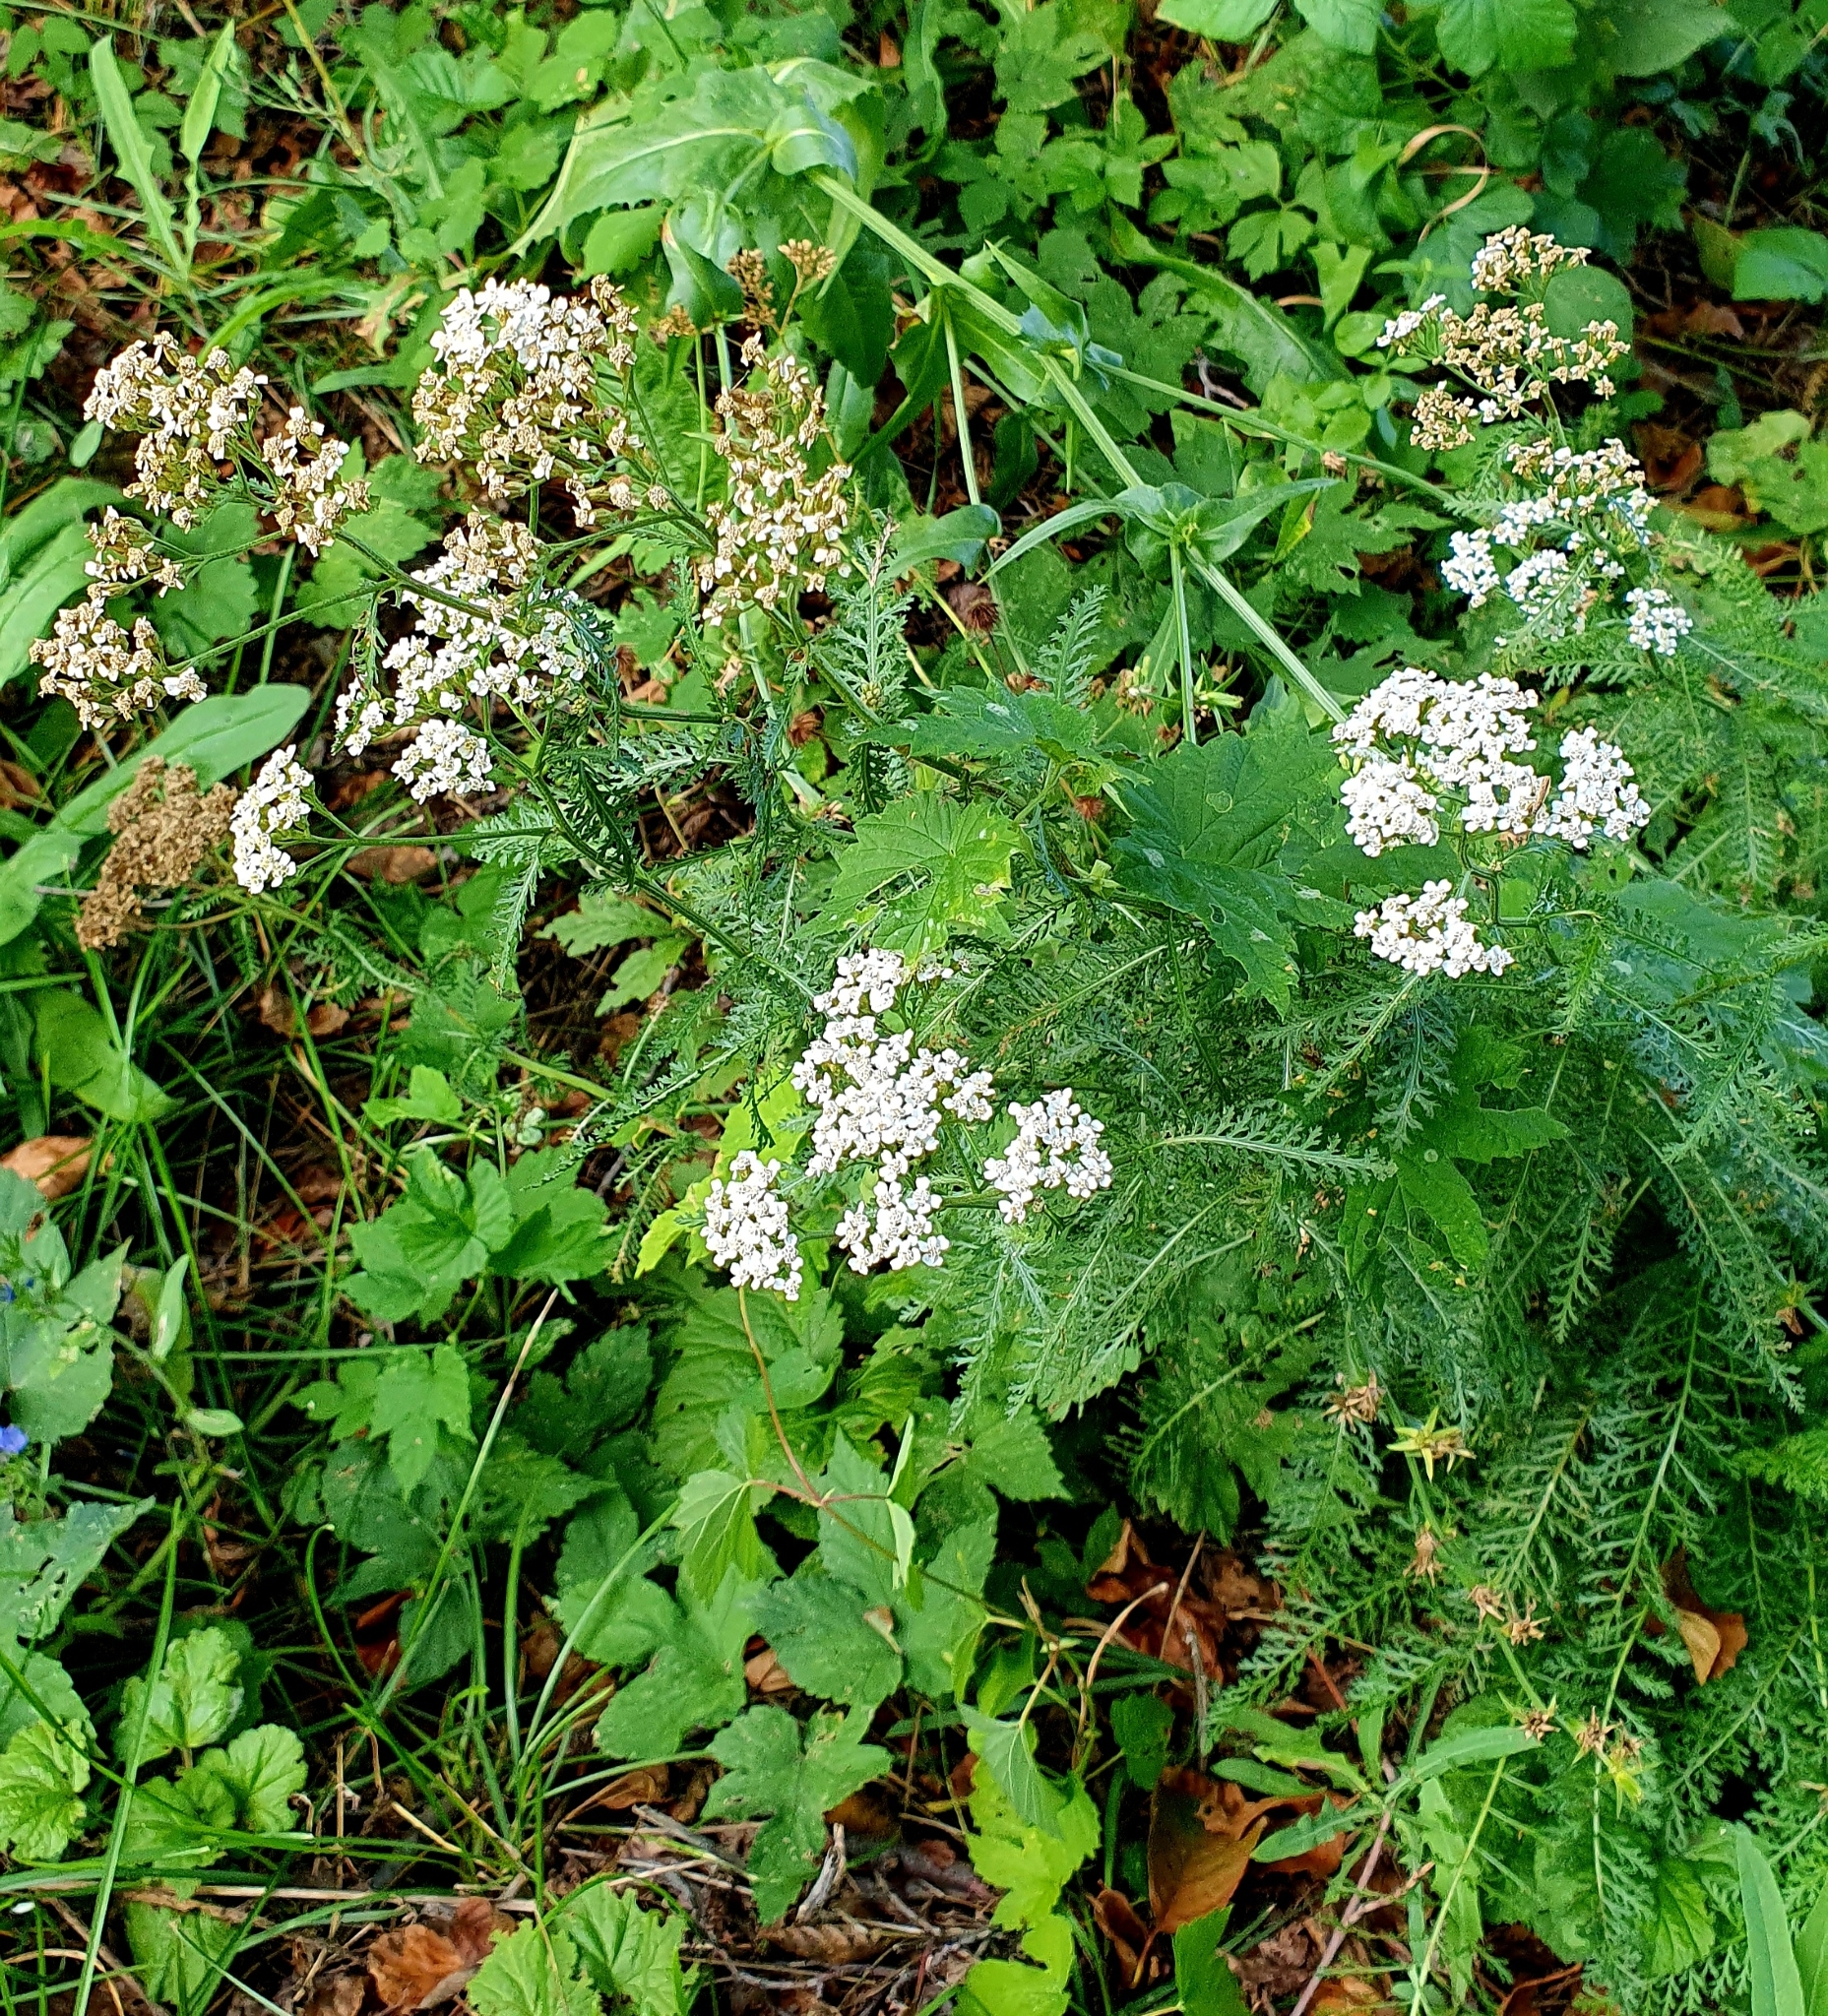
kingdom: Plantae
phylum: Tracheophyta
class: Magnoliopsida
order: Asterales
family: Asteraceae
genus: Achillea
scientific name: Achillea millefolium
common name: Yarrow
